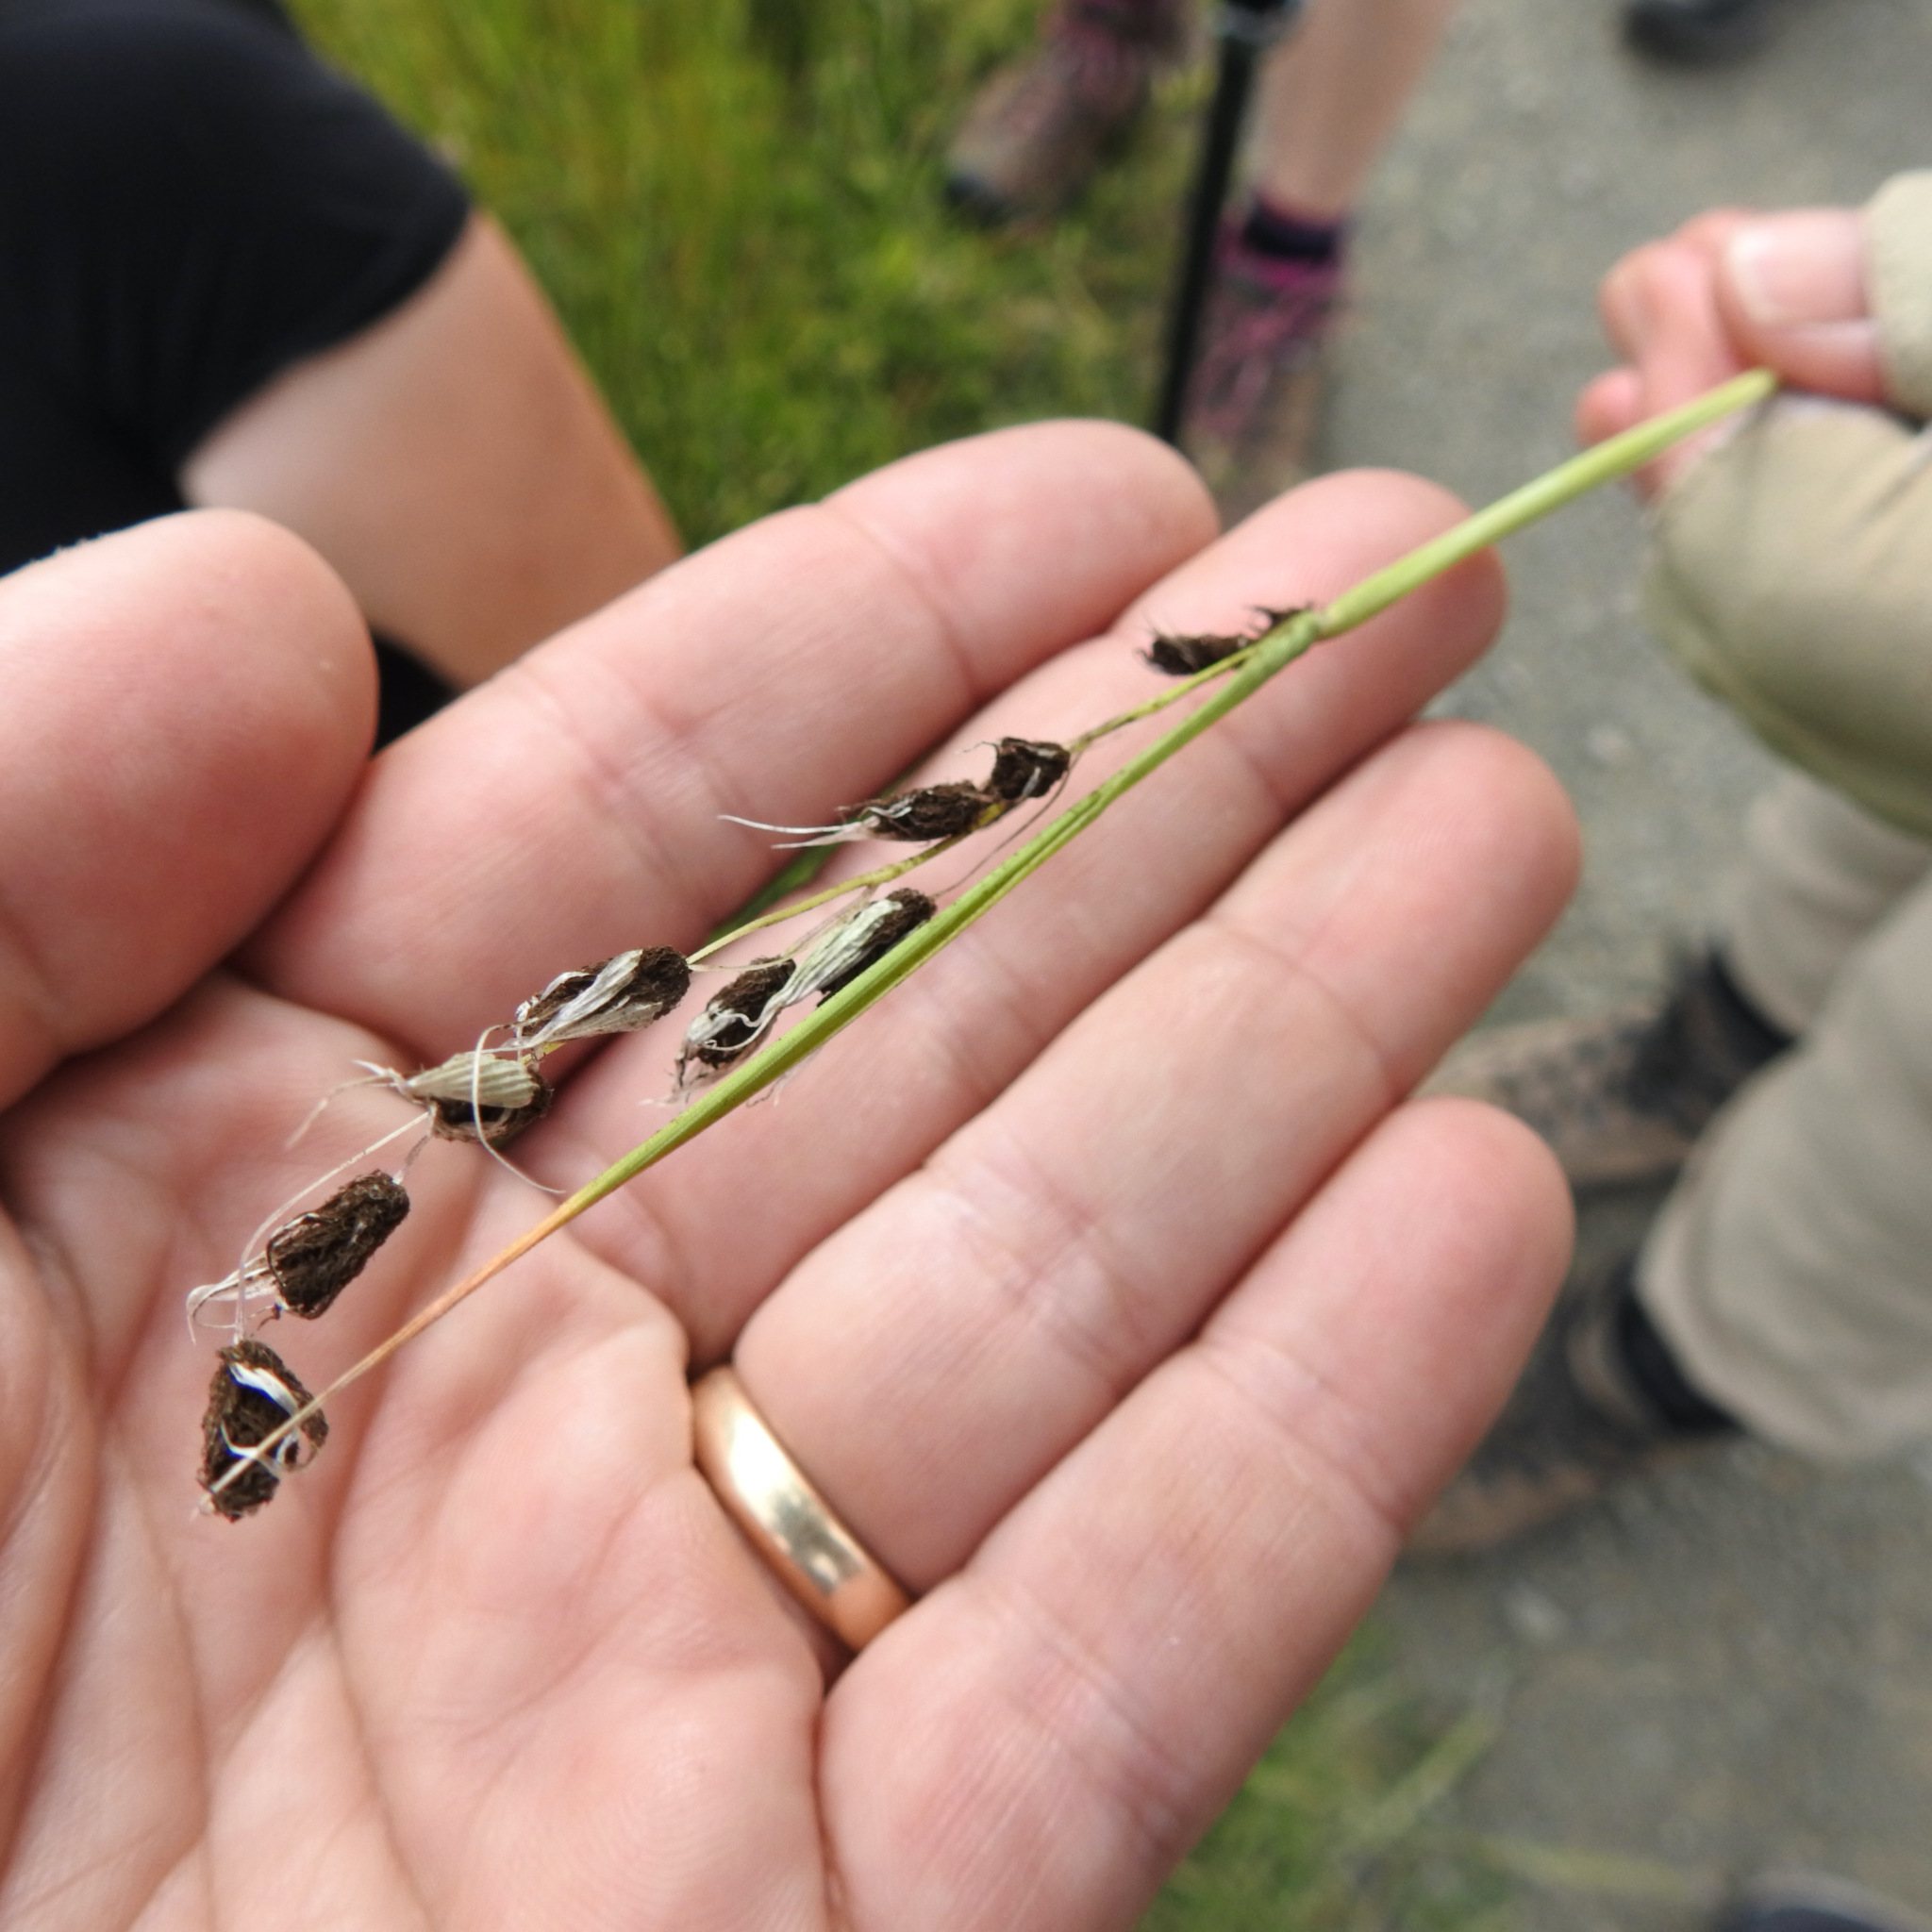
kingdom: Fungi
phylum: Basidiomycota
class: Ustilaginomycetes
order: Ustilaginales
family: Ustilaginaceae
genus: Ustilago
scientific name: Ustilago avenae
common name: Loose smut of oats & oat grass
